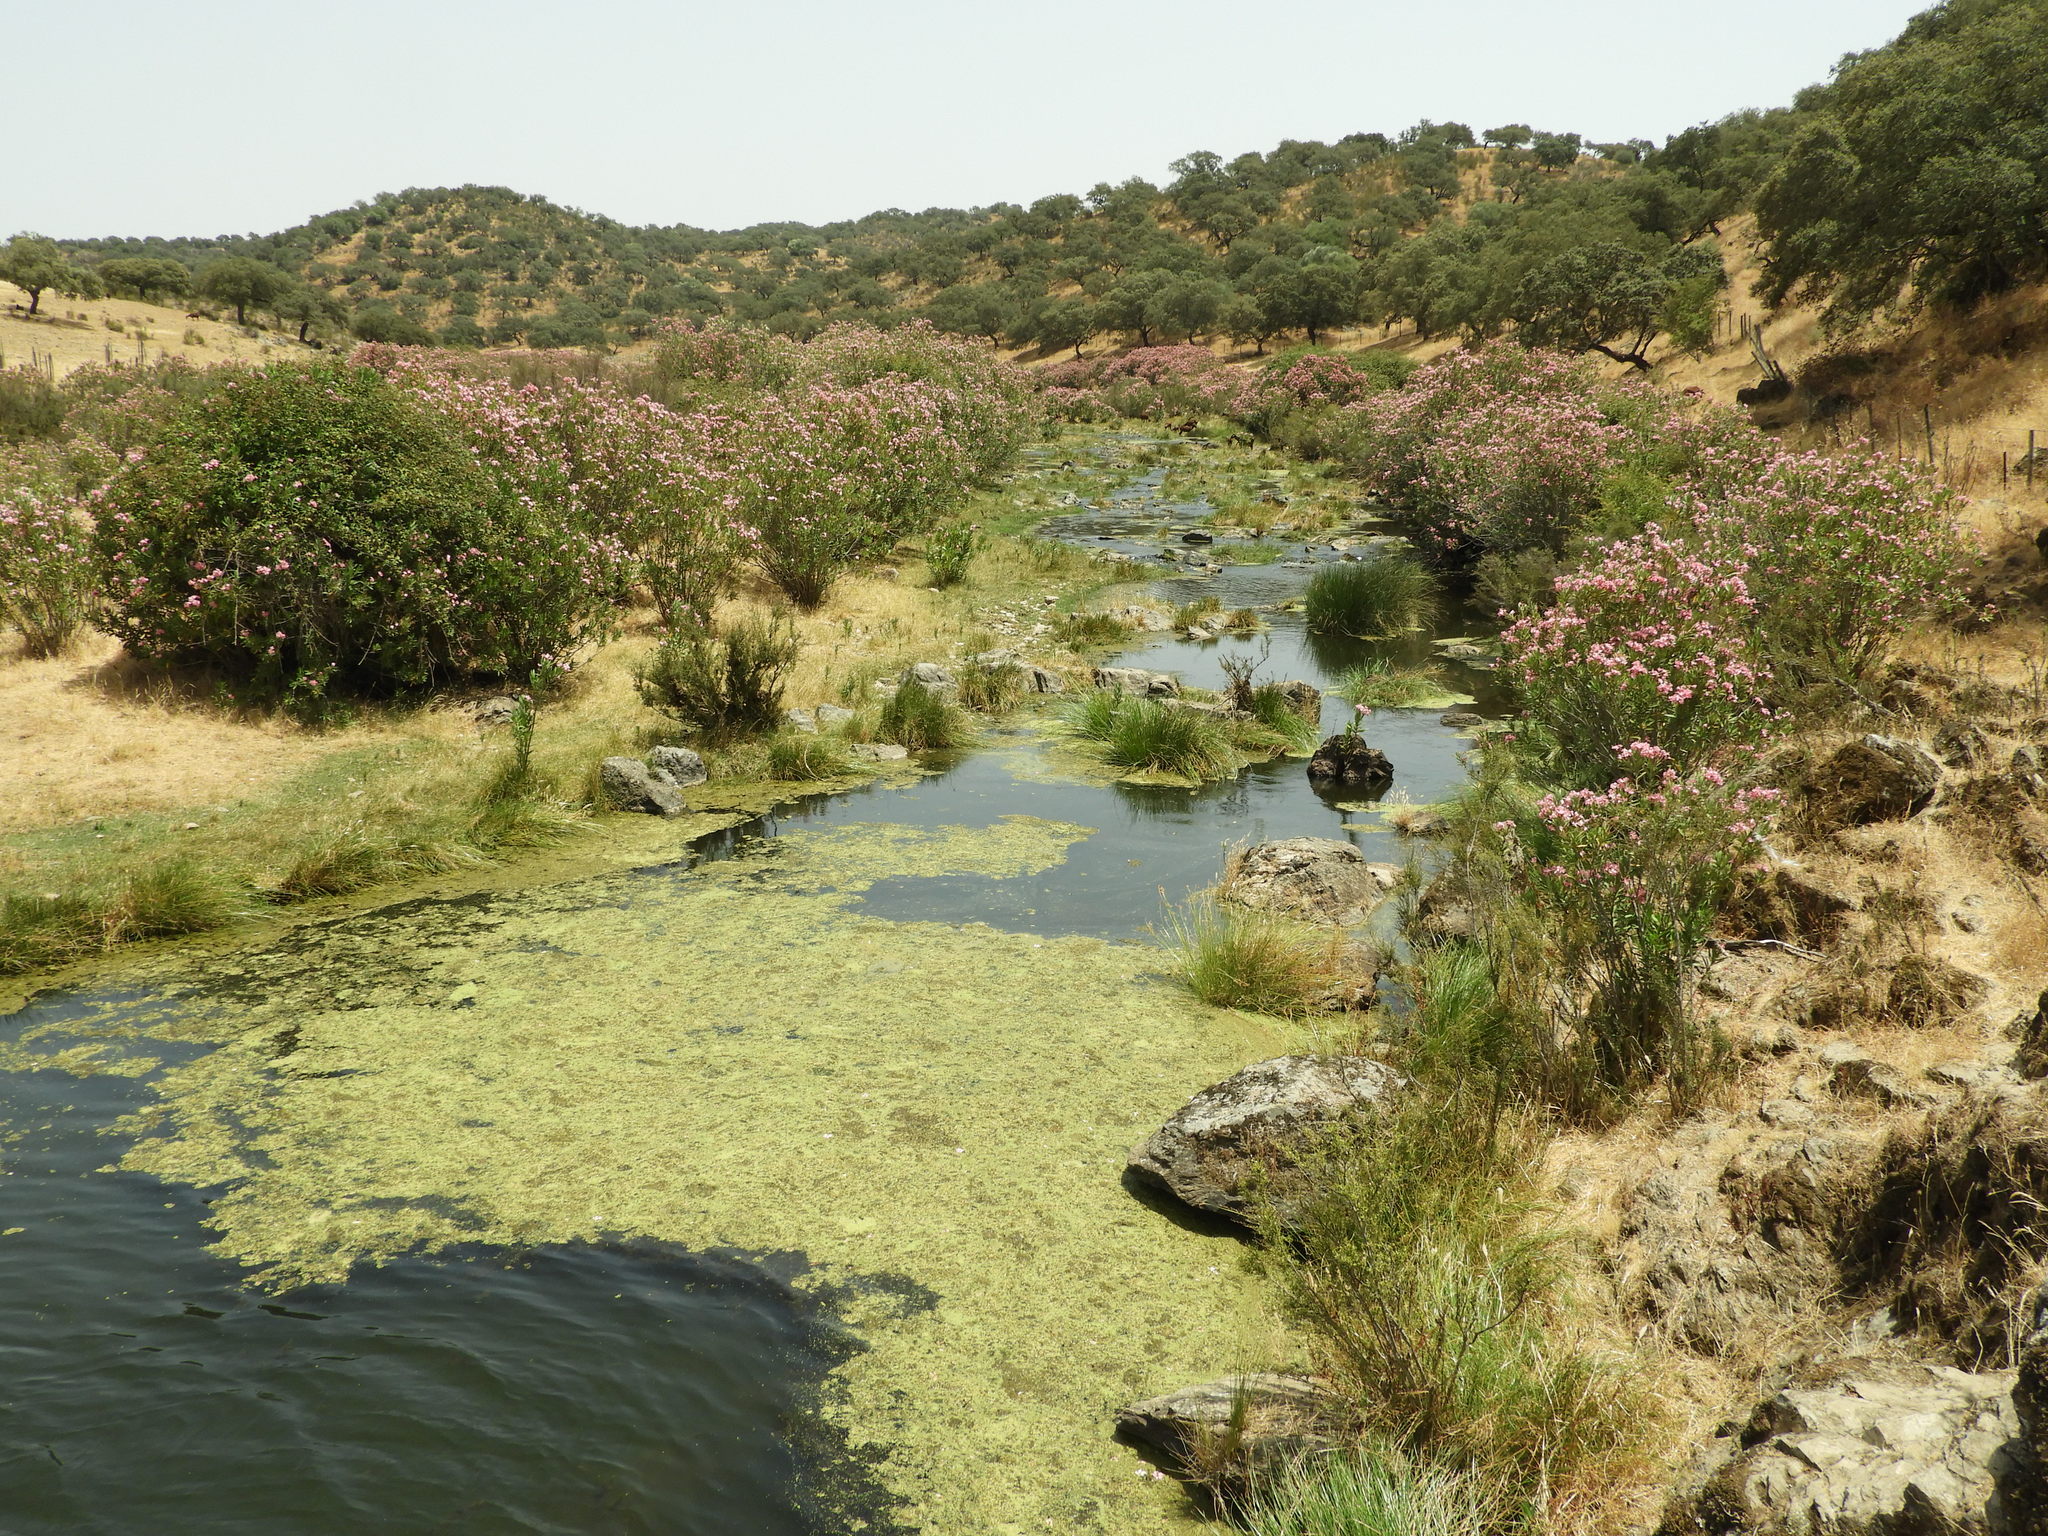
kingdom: Plantae
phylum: Tracheophyta
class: Magnoliopsida
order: Gentianales
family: Apocynaceae
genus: Nerium
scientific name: Nerium oleander
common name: Oleander
